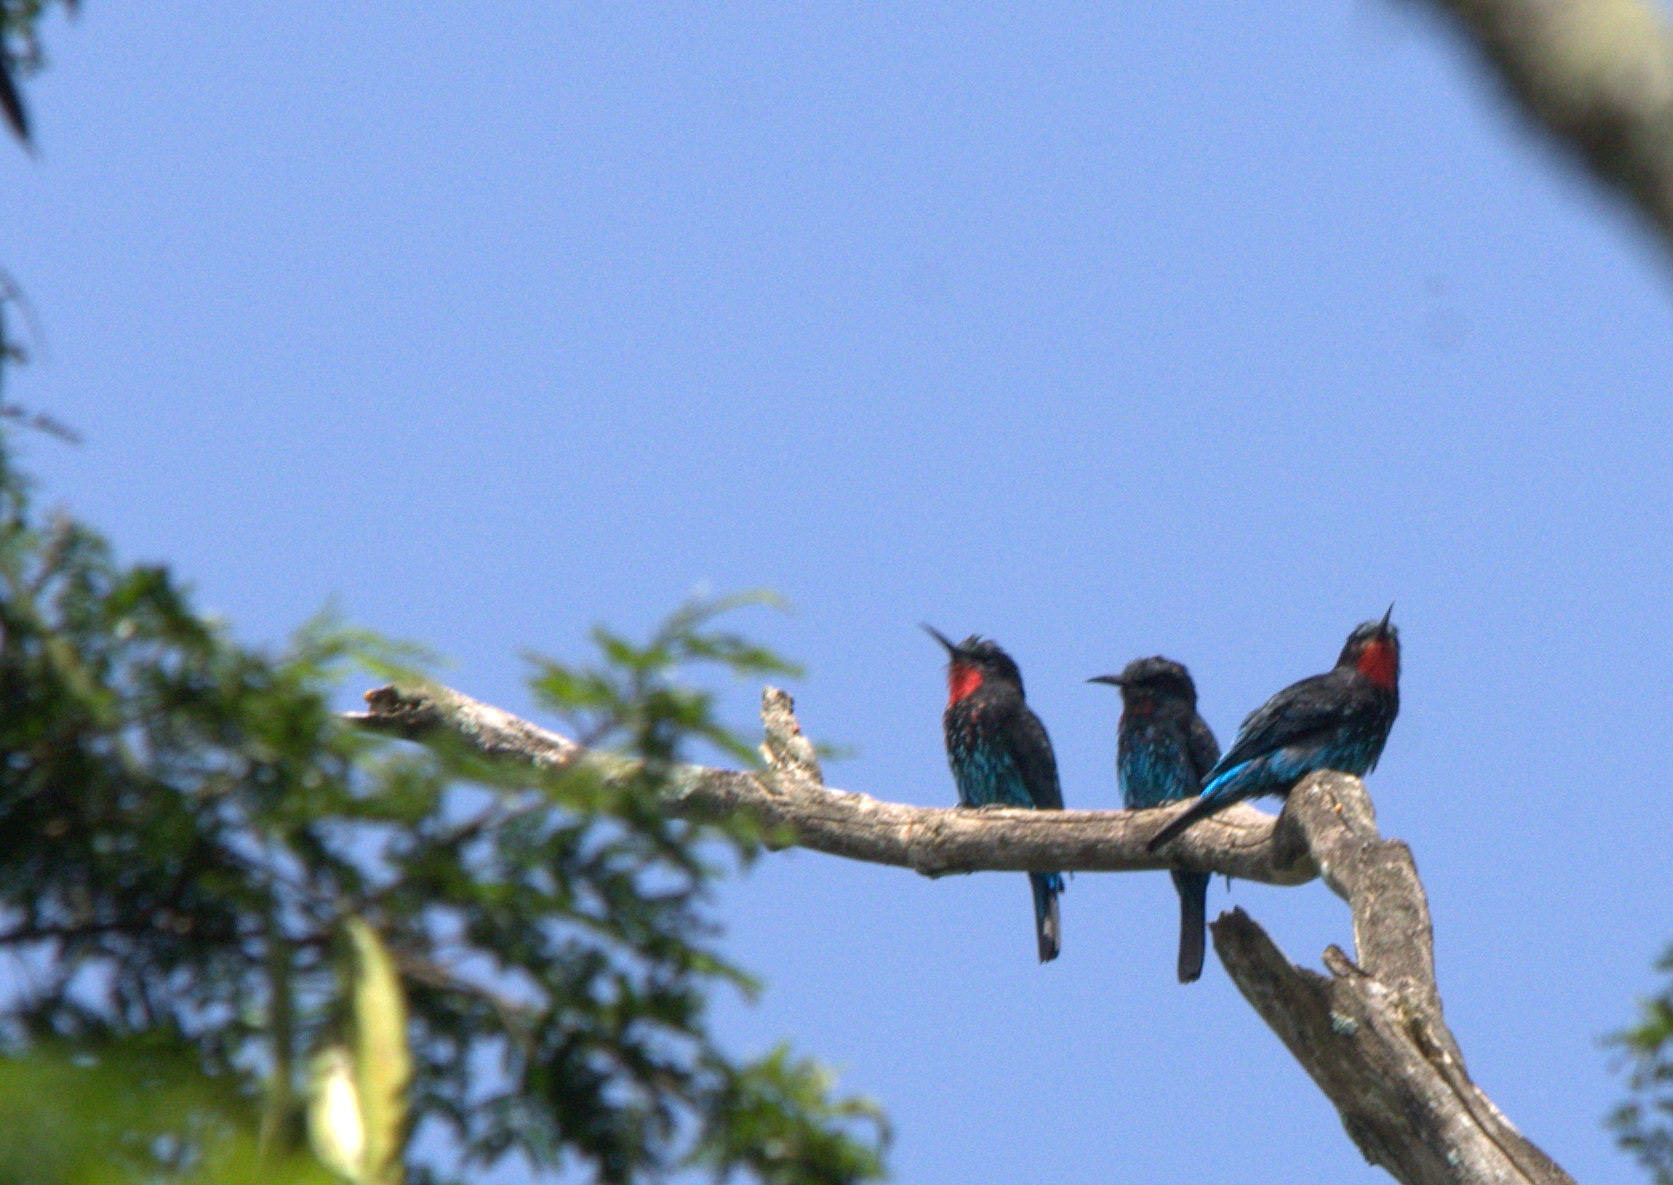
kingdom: Animalia
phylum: Chordata
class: Aves
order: Coraciiformes
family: Meropidae
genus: Merops
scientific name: Merops gularis
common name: Black bee-eater
